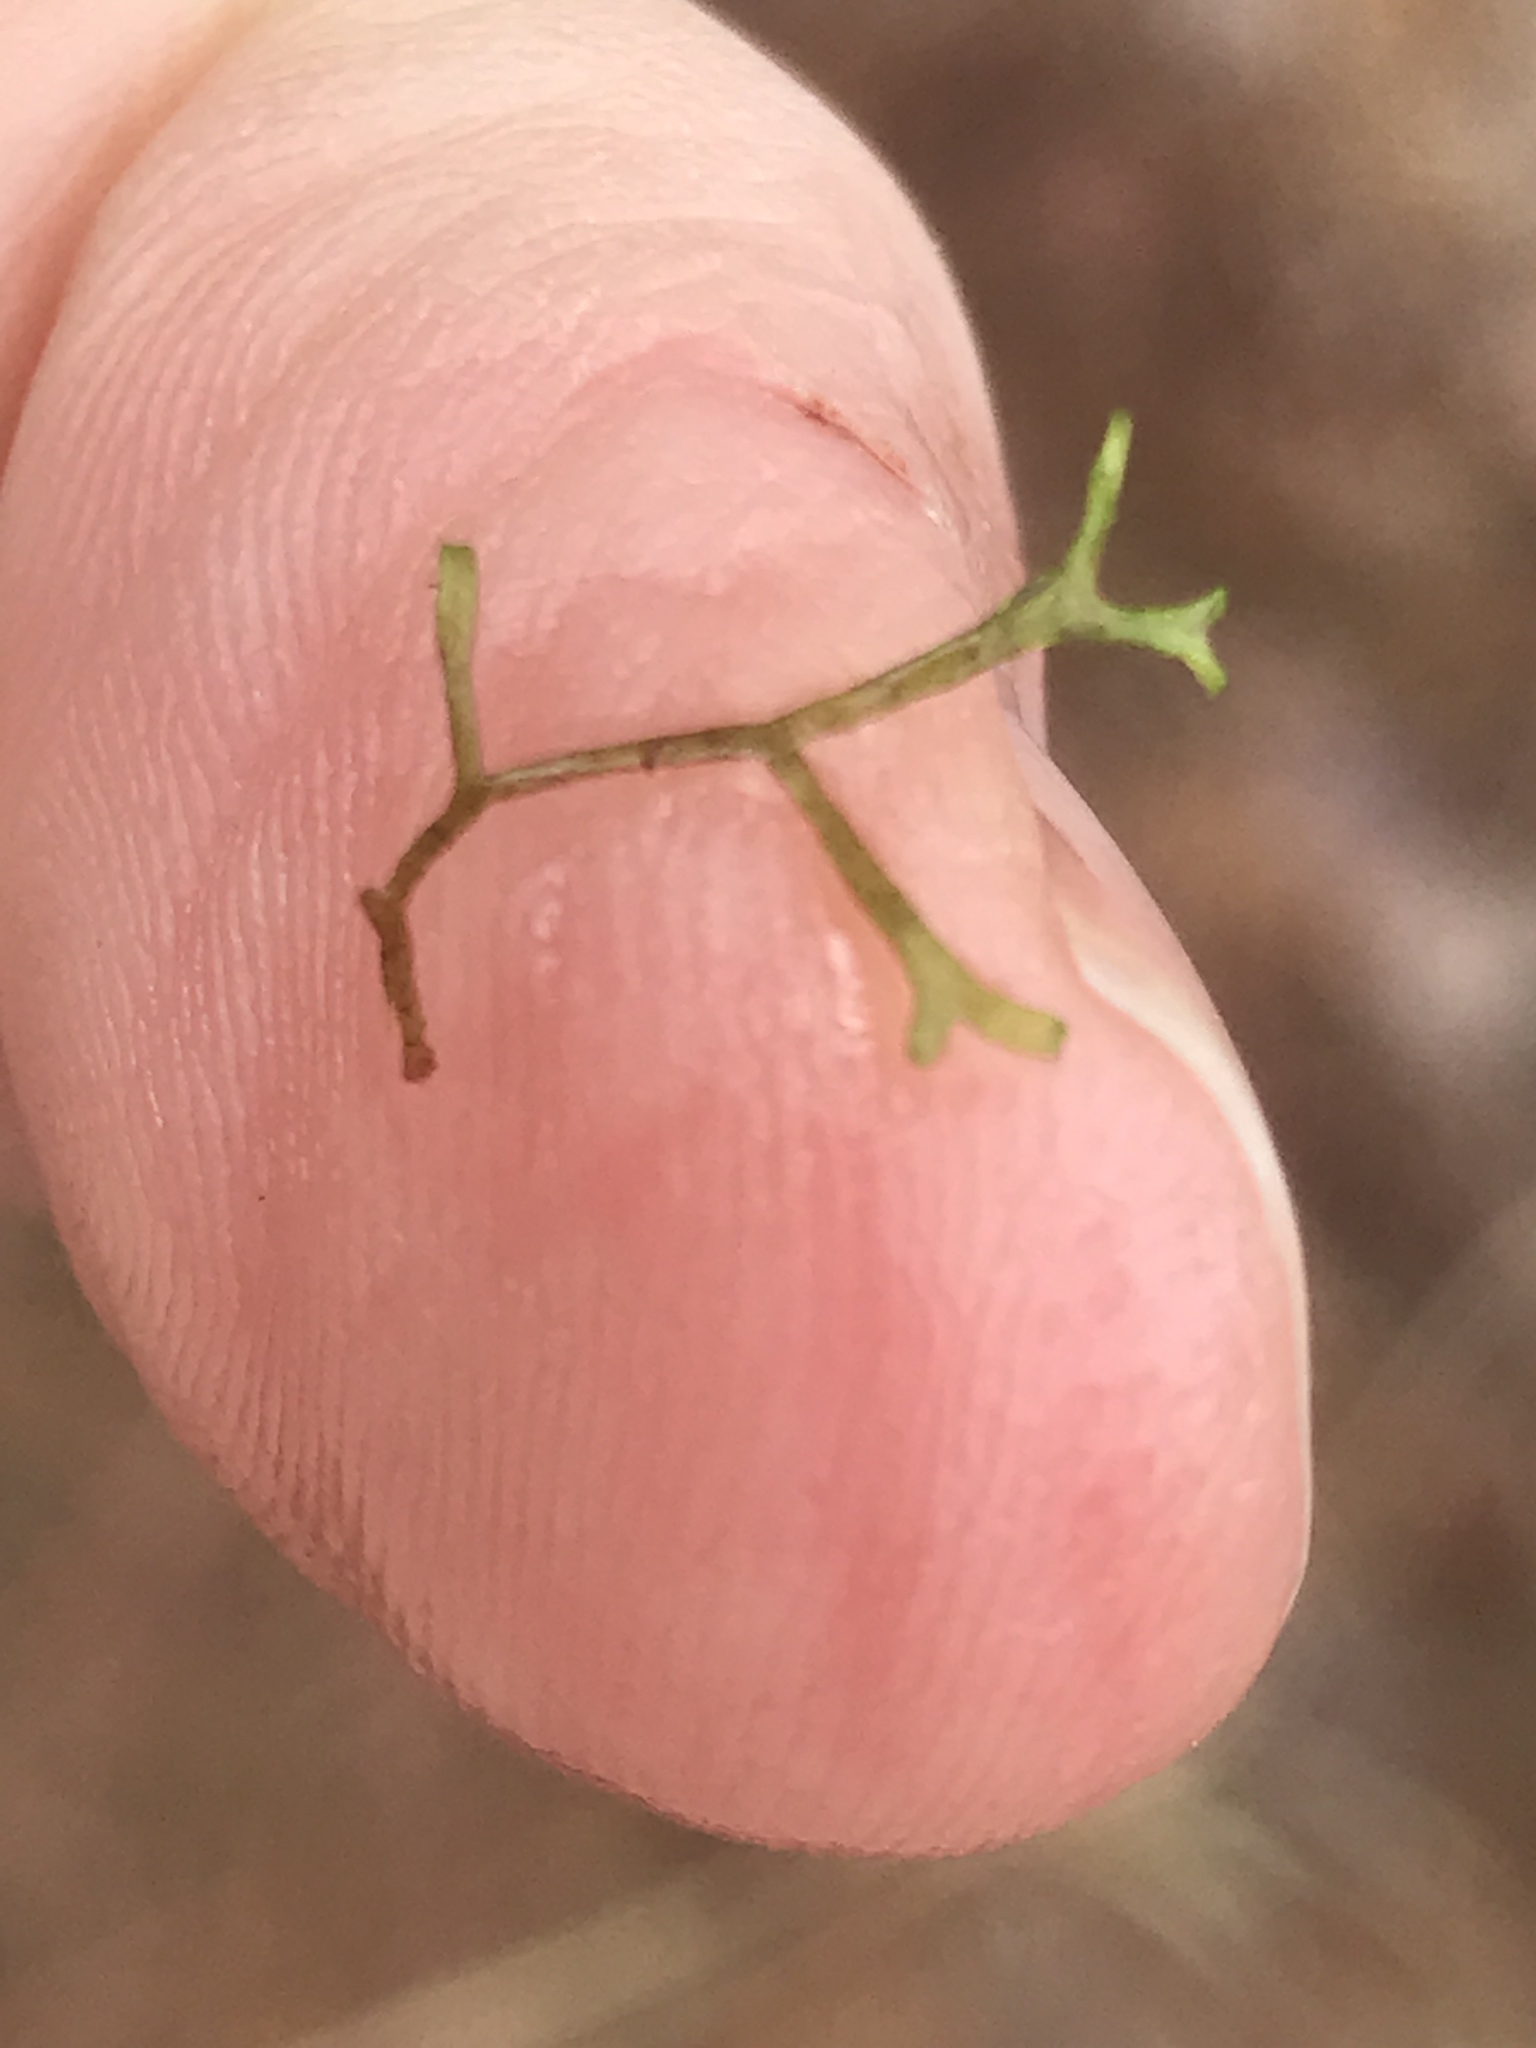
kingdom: Plantae
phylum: Marchantiophyta
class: Marchantiopsida
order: Marchantiales
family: Ricciaceae
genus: Riccia
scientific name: Riccia fluitans
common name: Floating crystalwort
